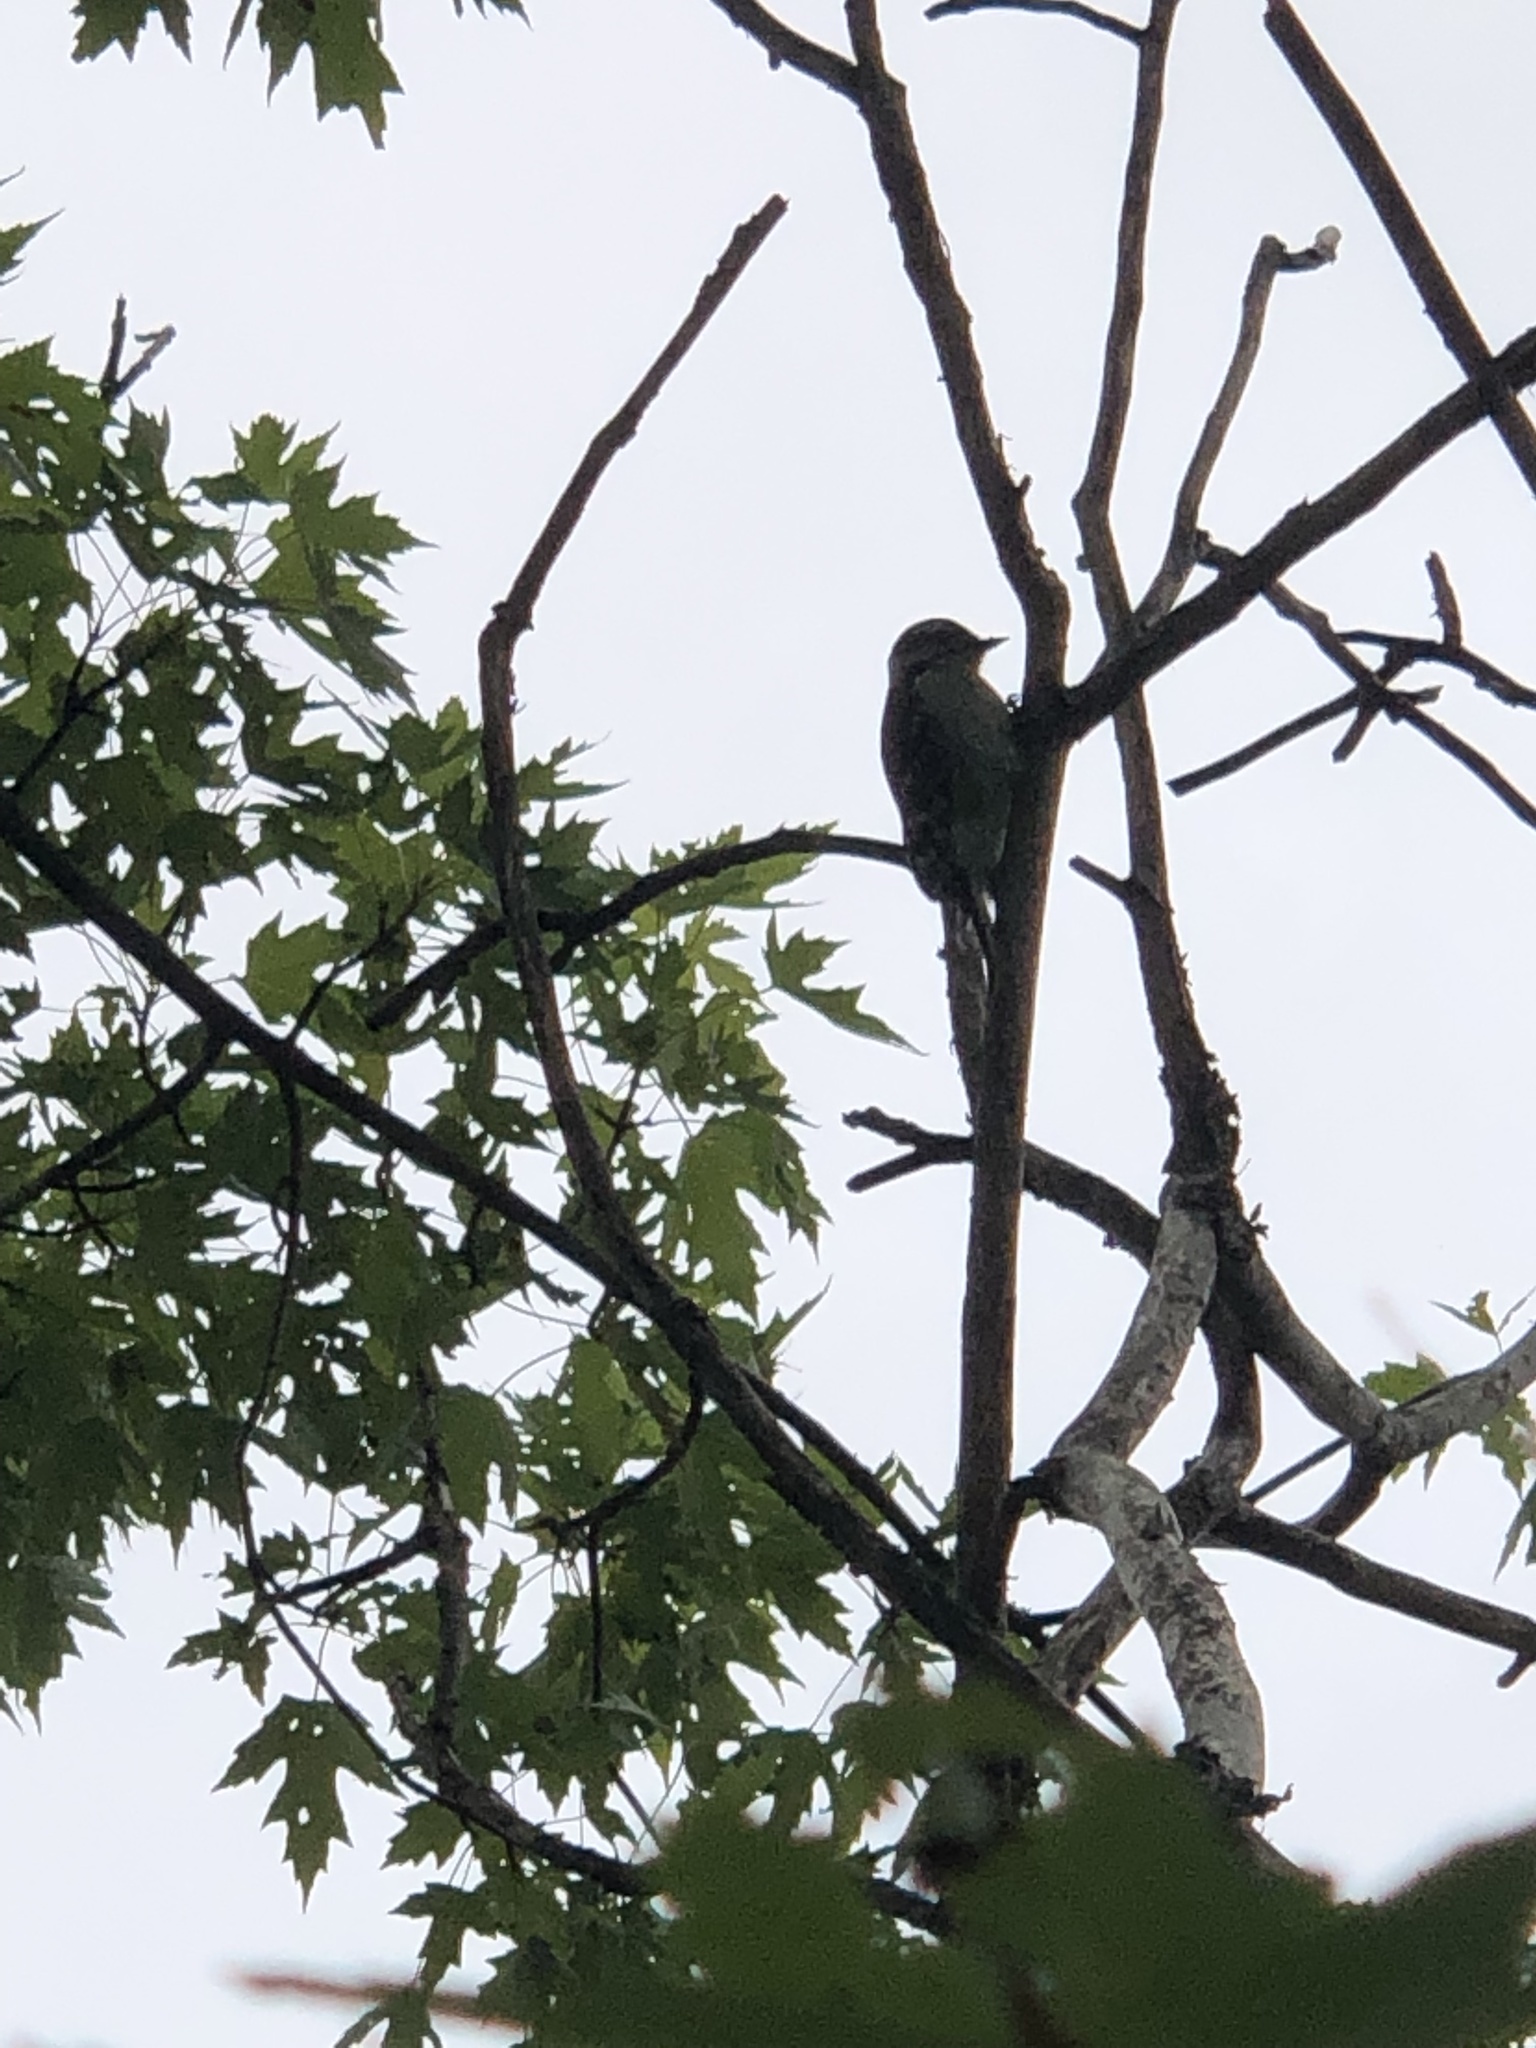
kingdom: Animalia
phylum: Chordata
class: Aves
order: Piciformes
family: Picidae
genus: Dryobates
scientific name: Dryobates pubescens
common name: Downy woodpecker
